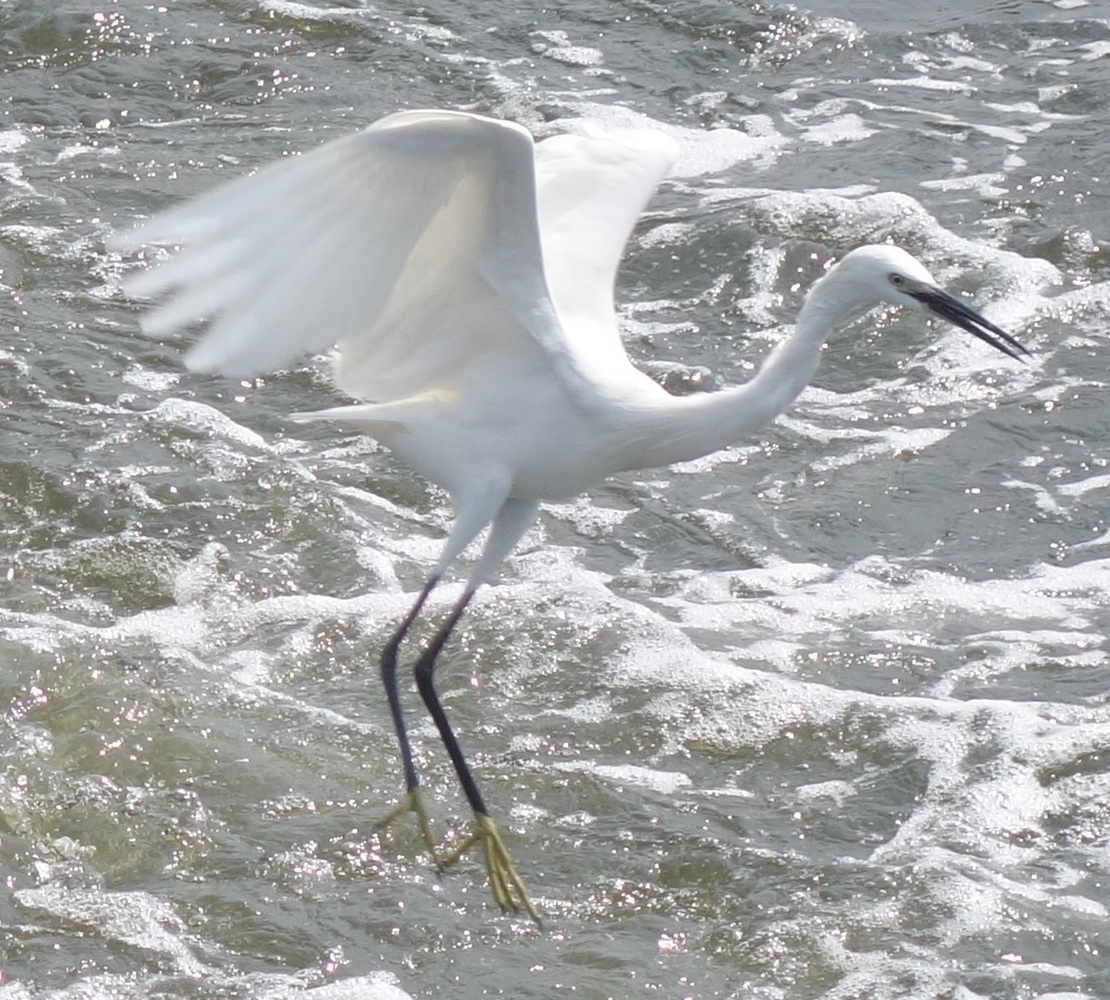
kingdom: Animalia
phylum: Chordata
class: Aves
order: Pelecaniformes
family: Ardeidae
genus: Egretta
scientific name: Egretta garzetta
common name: Little egret
